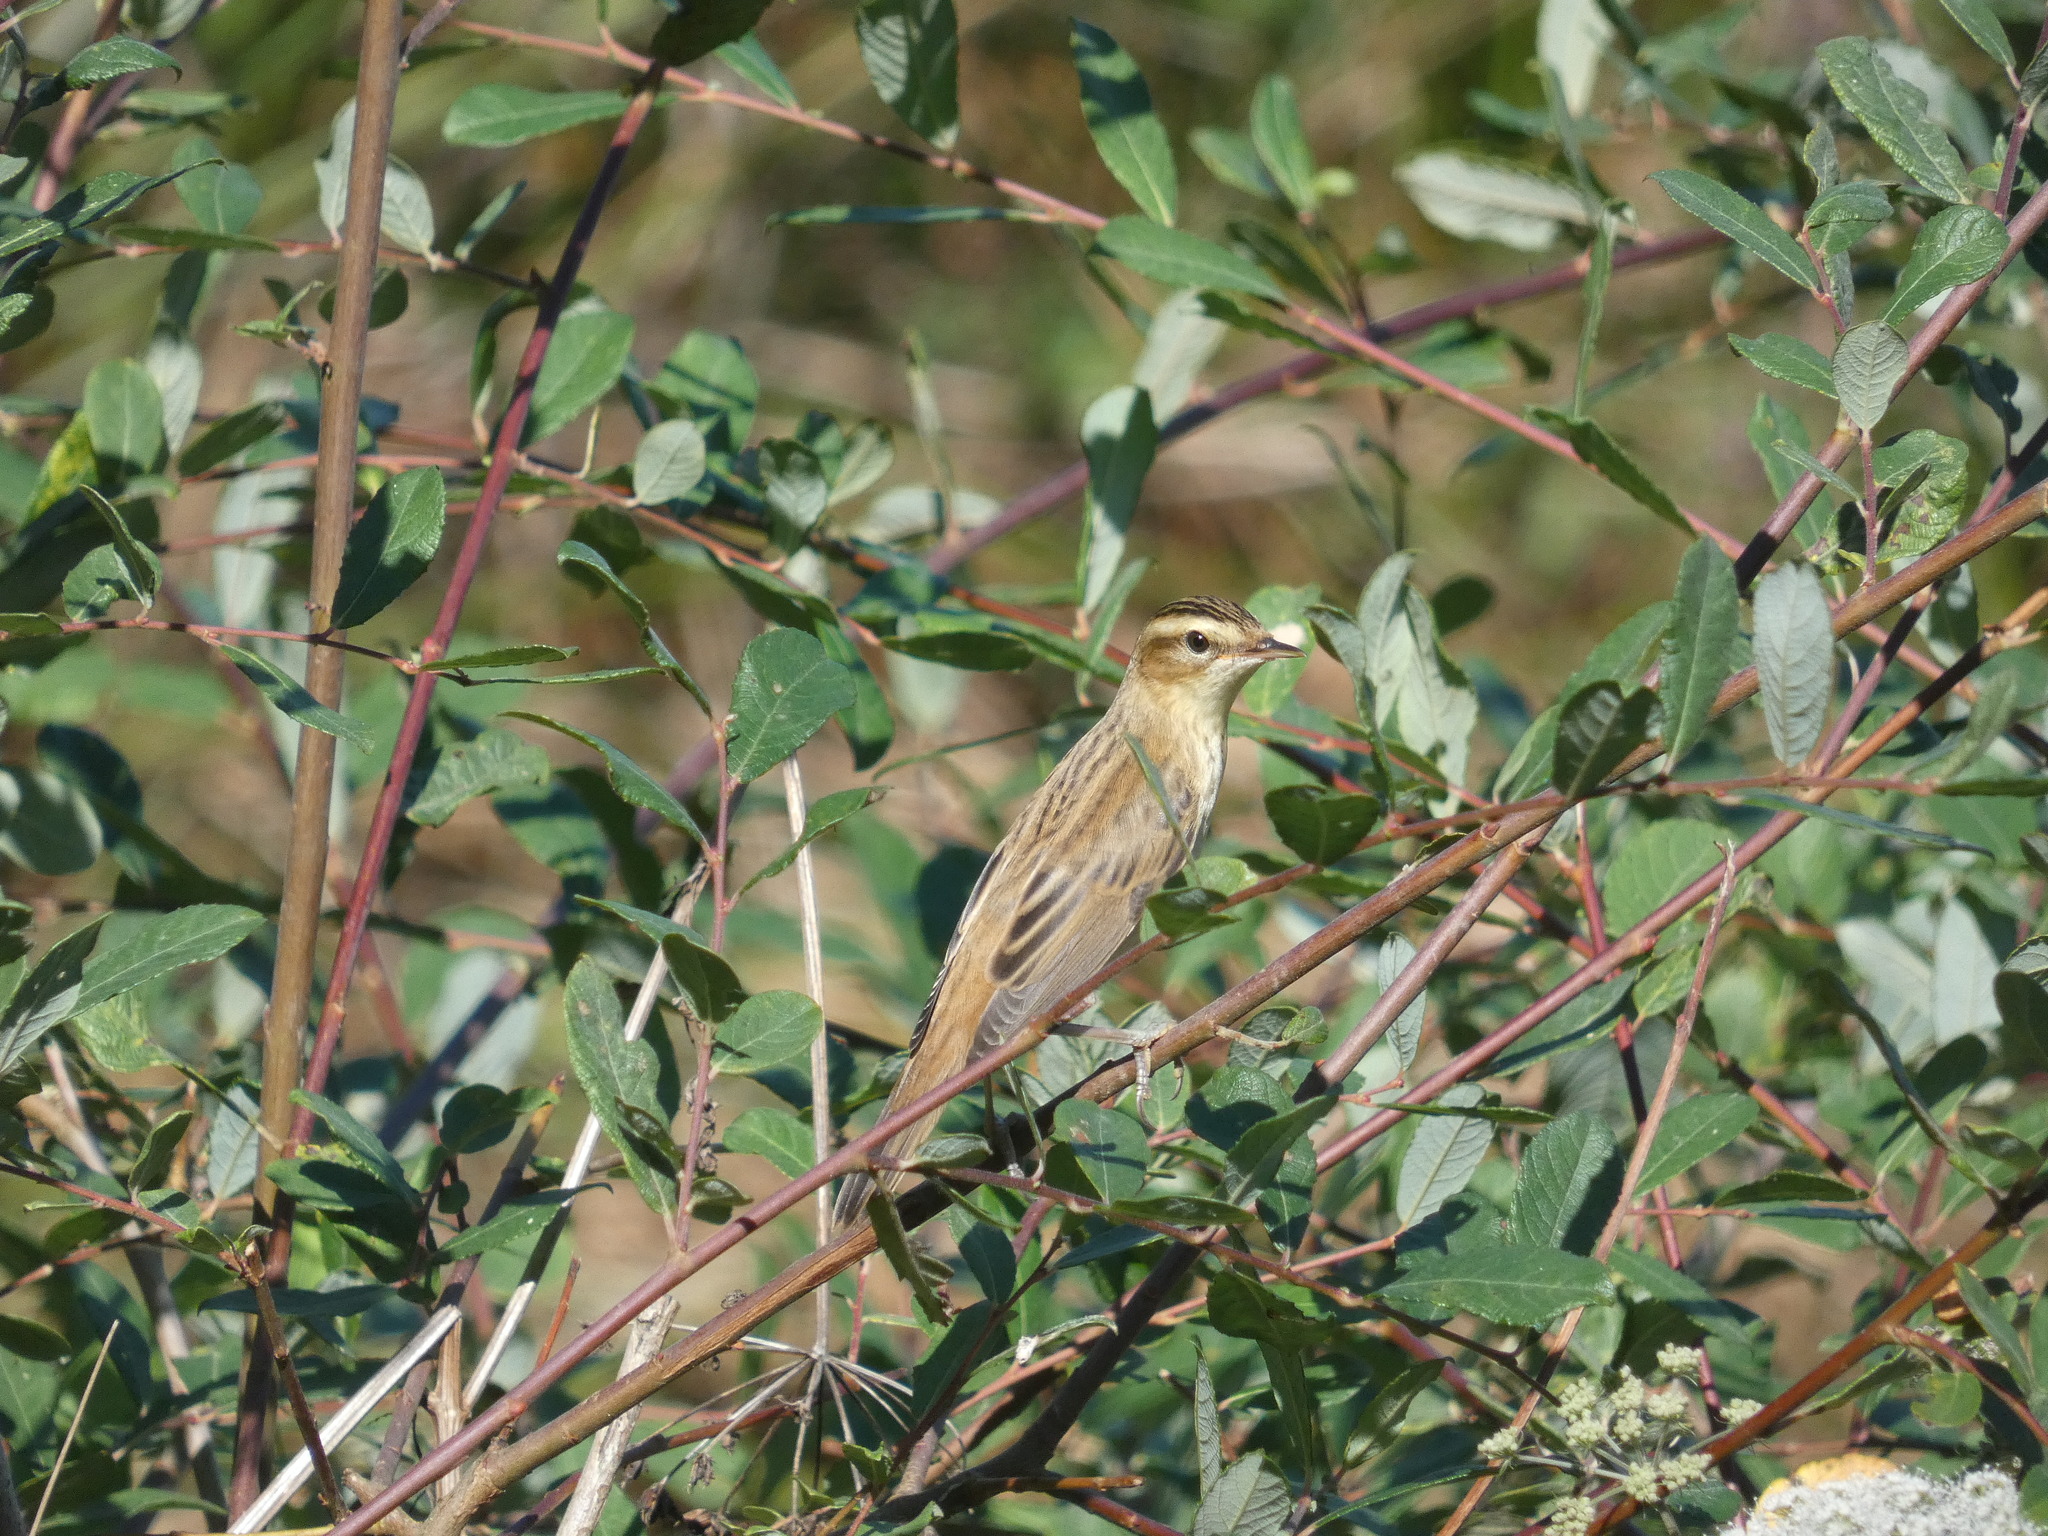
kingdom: Animalia
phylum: Chordata
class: Aves
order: Passeriformes
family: Acrocephalidae
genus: Acrocephalus
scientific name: Acrocephalus schoenobaenus
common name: Sedge warbler
